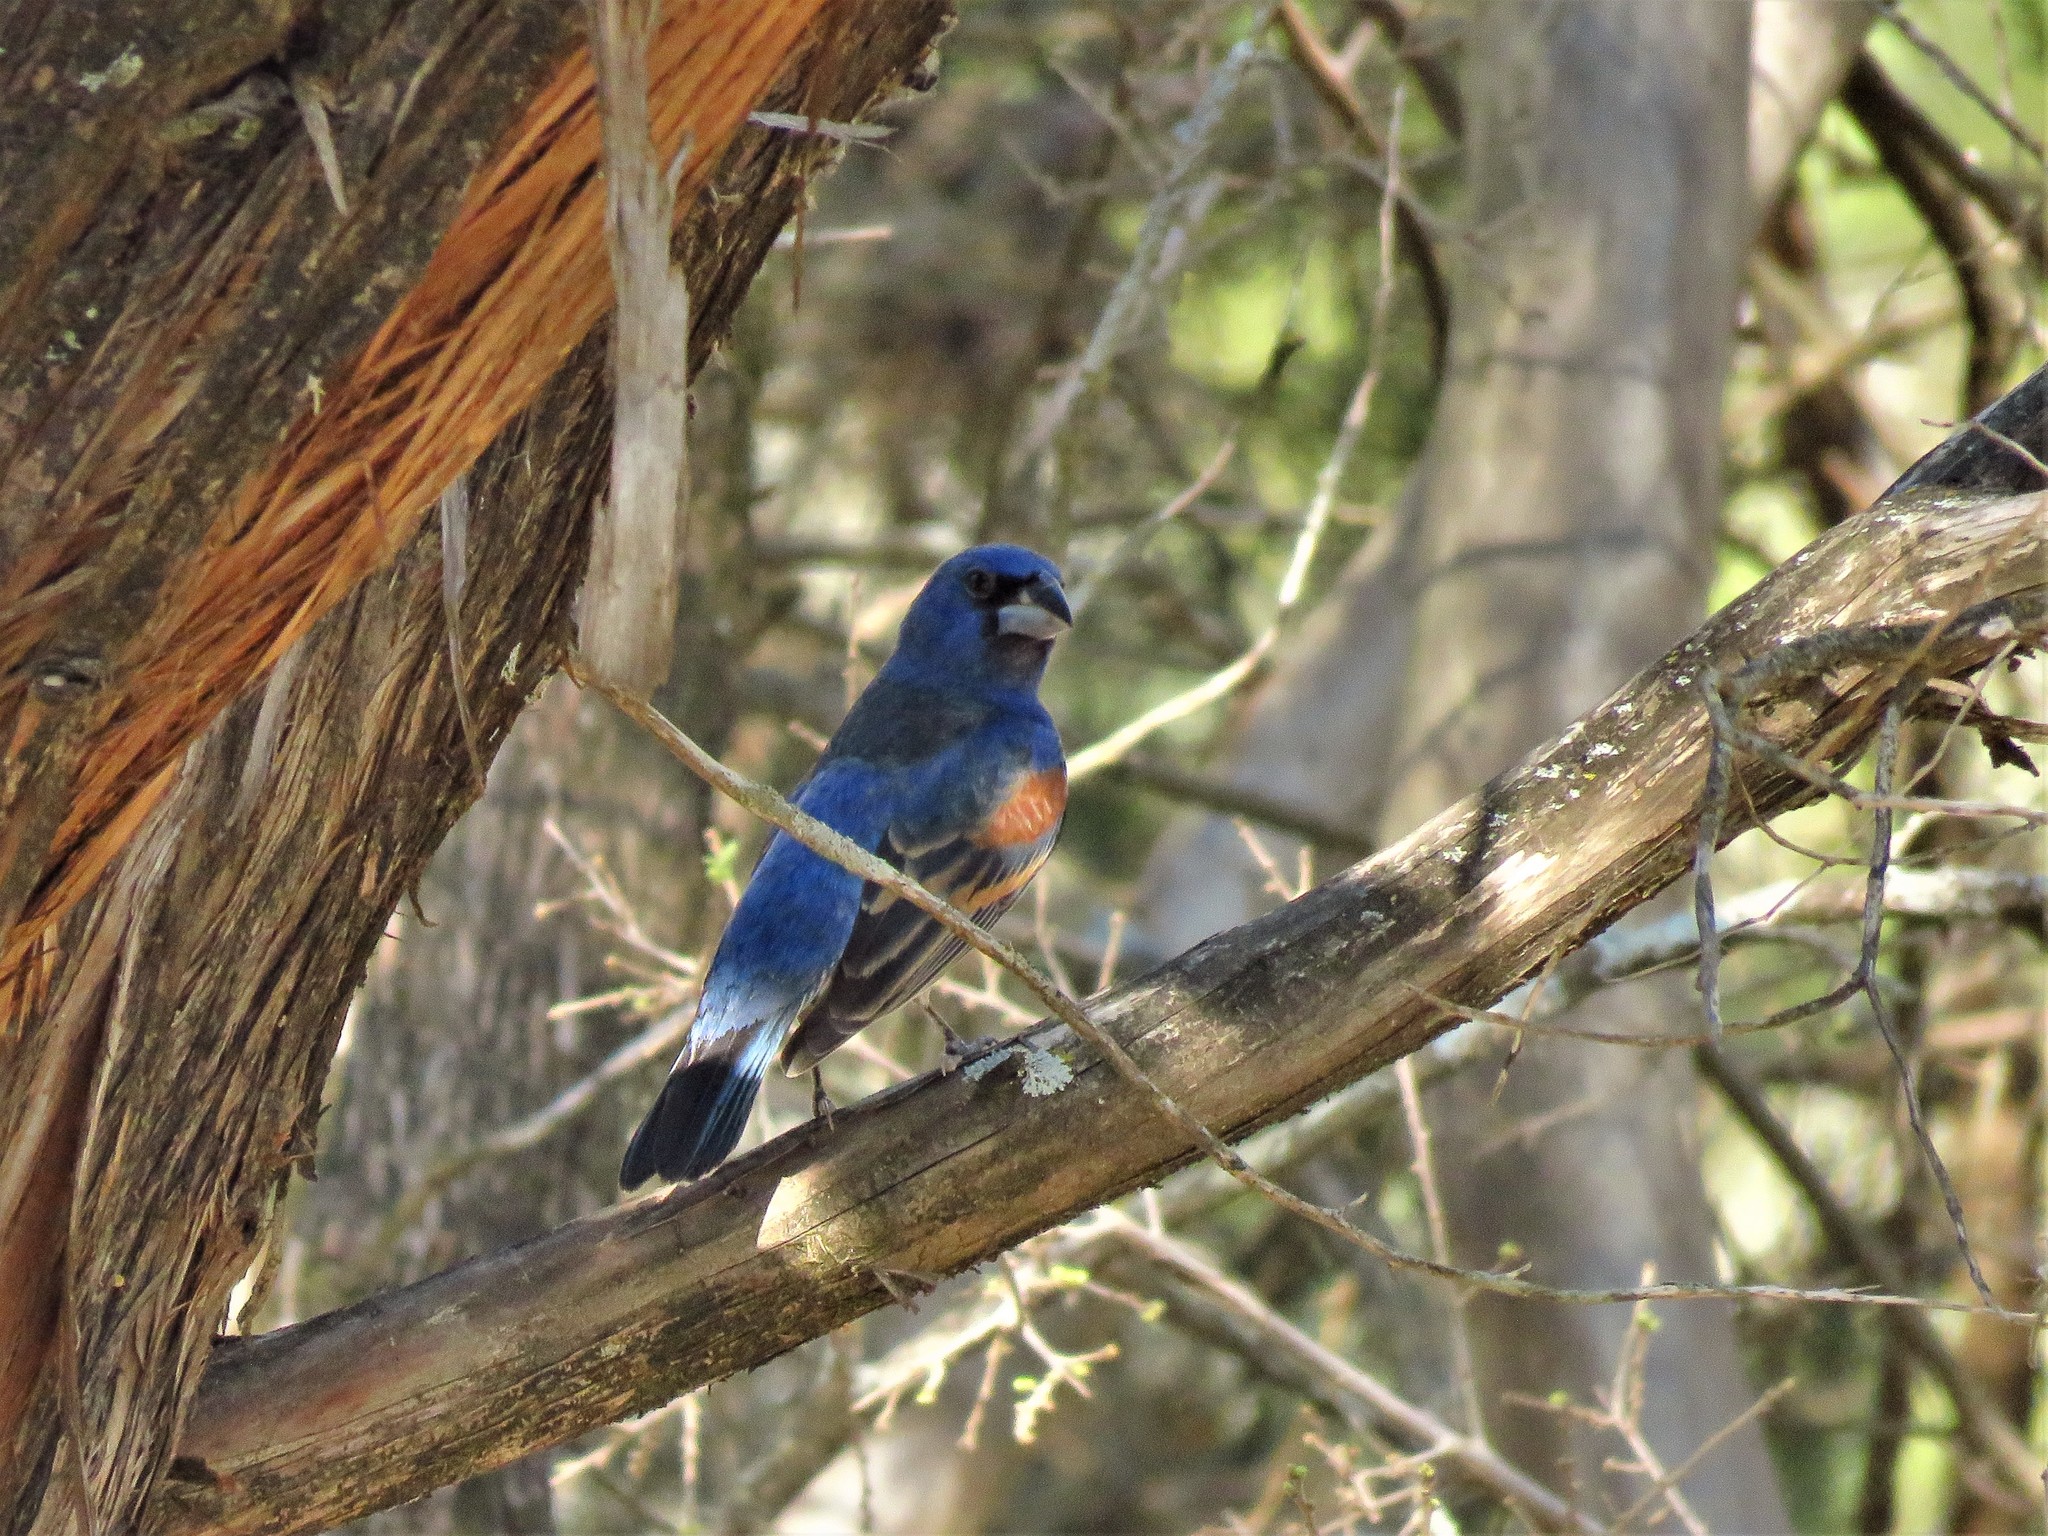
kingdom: Animalia
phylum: Chordata
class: Aves
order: Passeriformes
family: Cardinalidae
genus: Passerina
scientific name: Passerina caerulea
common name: Blue grosbeak
